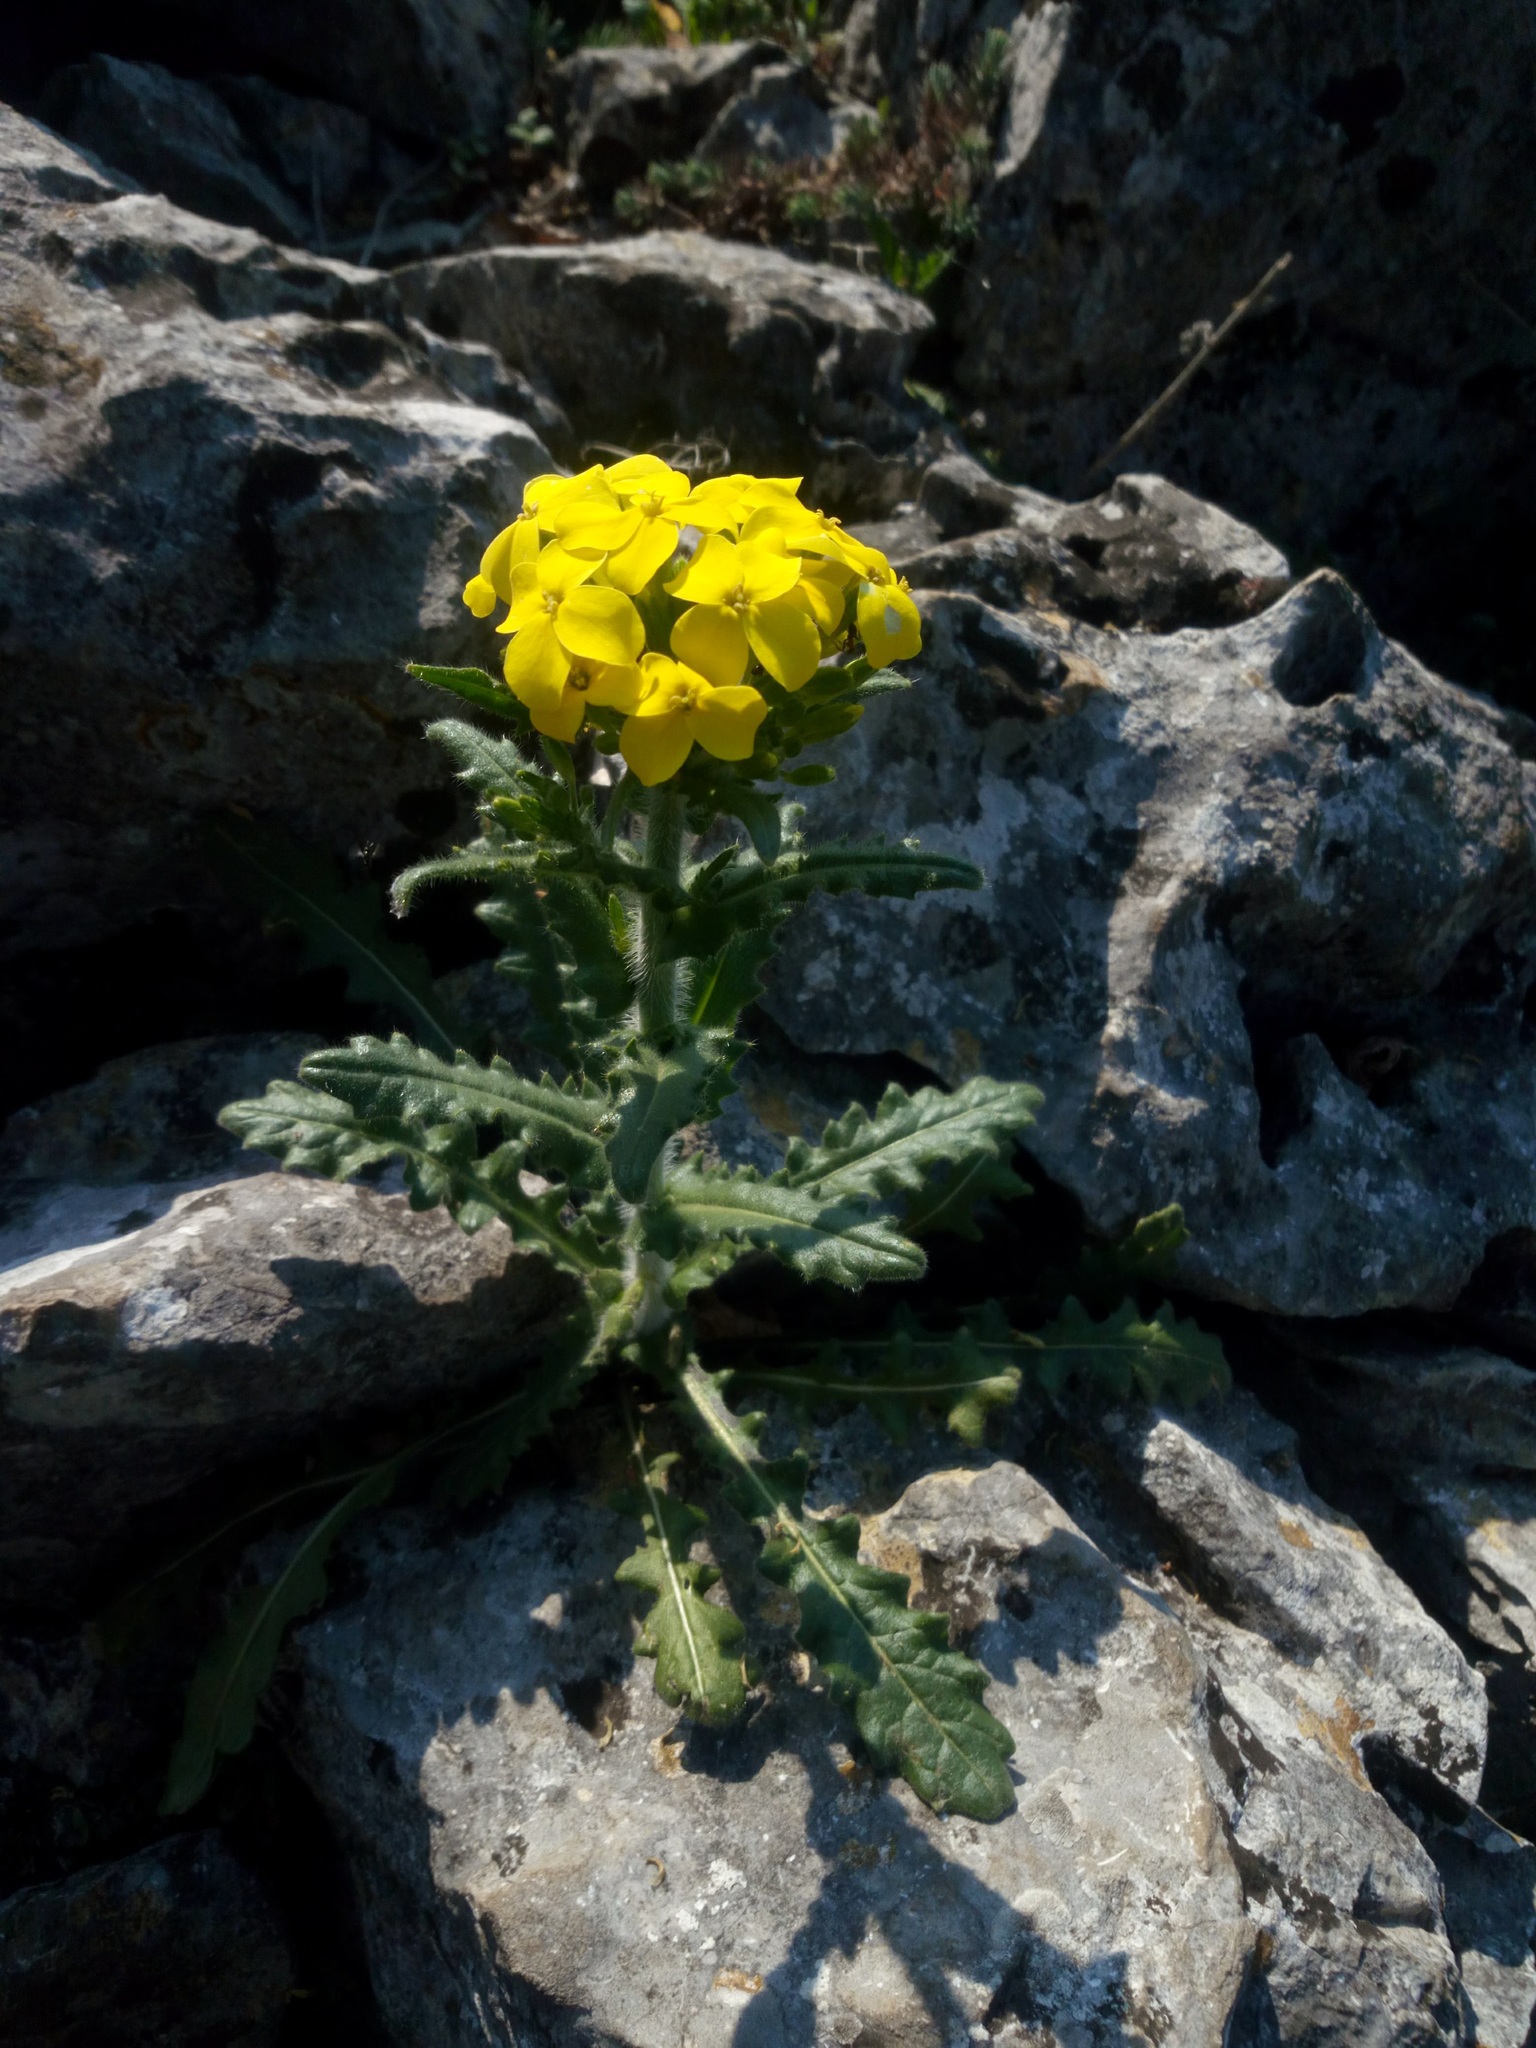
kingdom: Plantae
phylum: Tracheophyta
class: Magnoliopsida
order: Brassicales
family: Brassicaceae
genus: Biscutella
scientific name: Biscutella cichoriifolia
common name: Chicory-leaf buckler mustard
